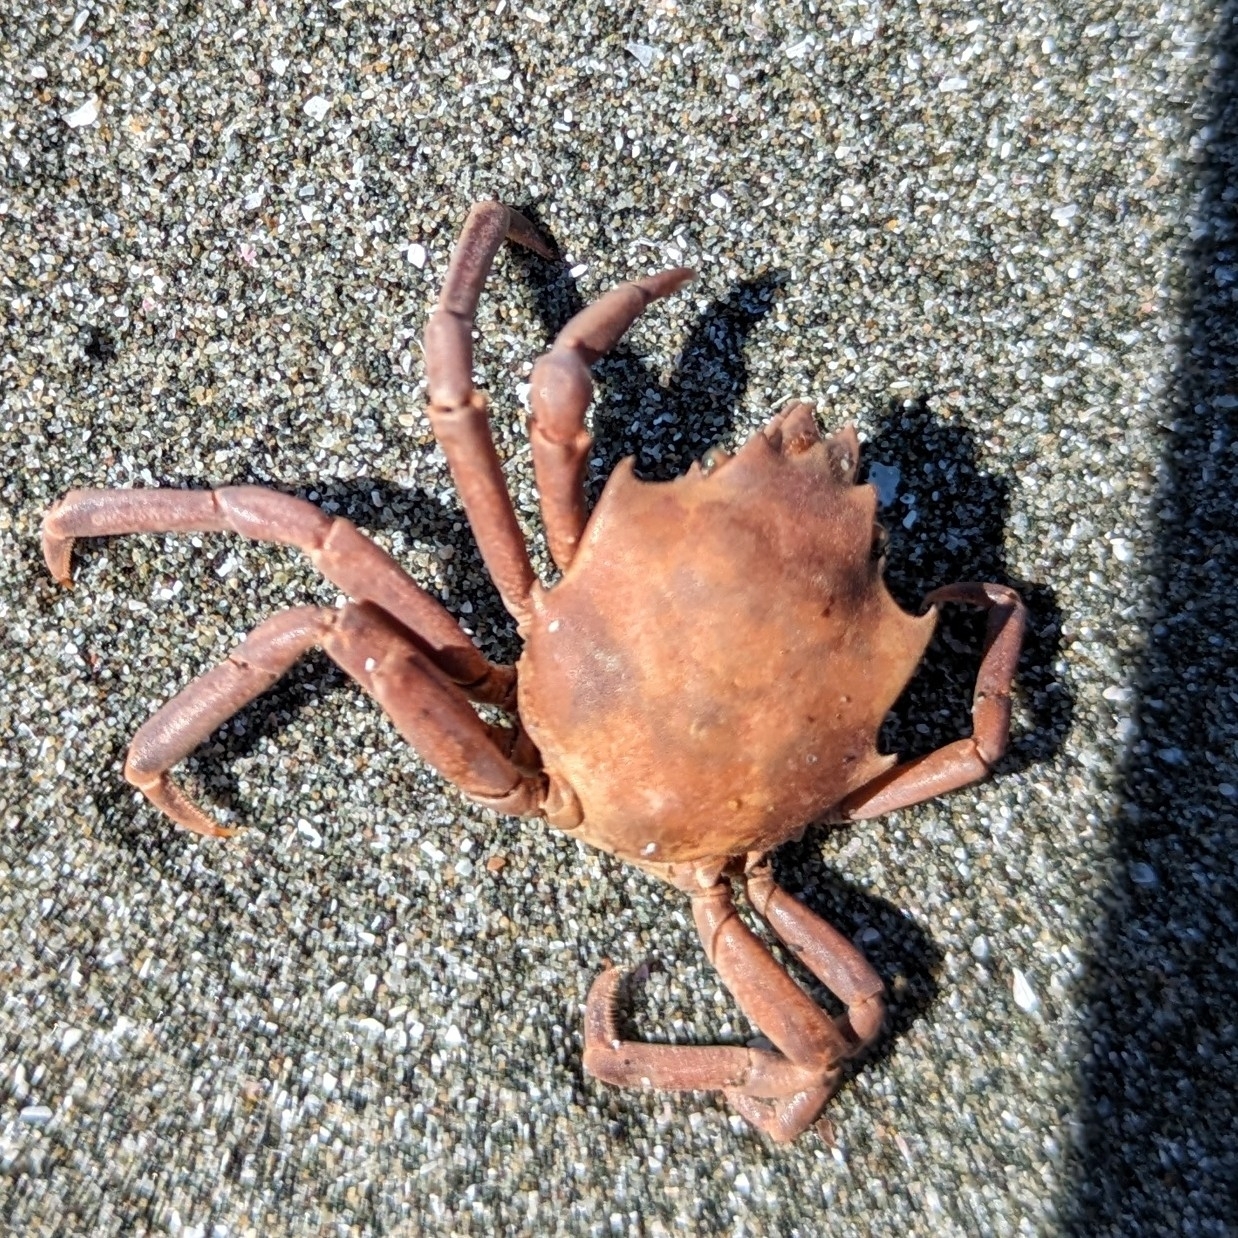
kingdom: Animalia
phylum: Arthropoda
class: Malacostraca
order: Decapoda
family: Epialtidae
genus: Pugettia
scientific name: Pugettia producta
